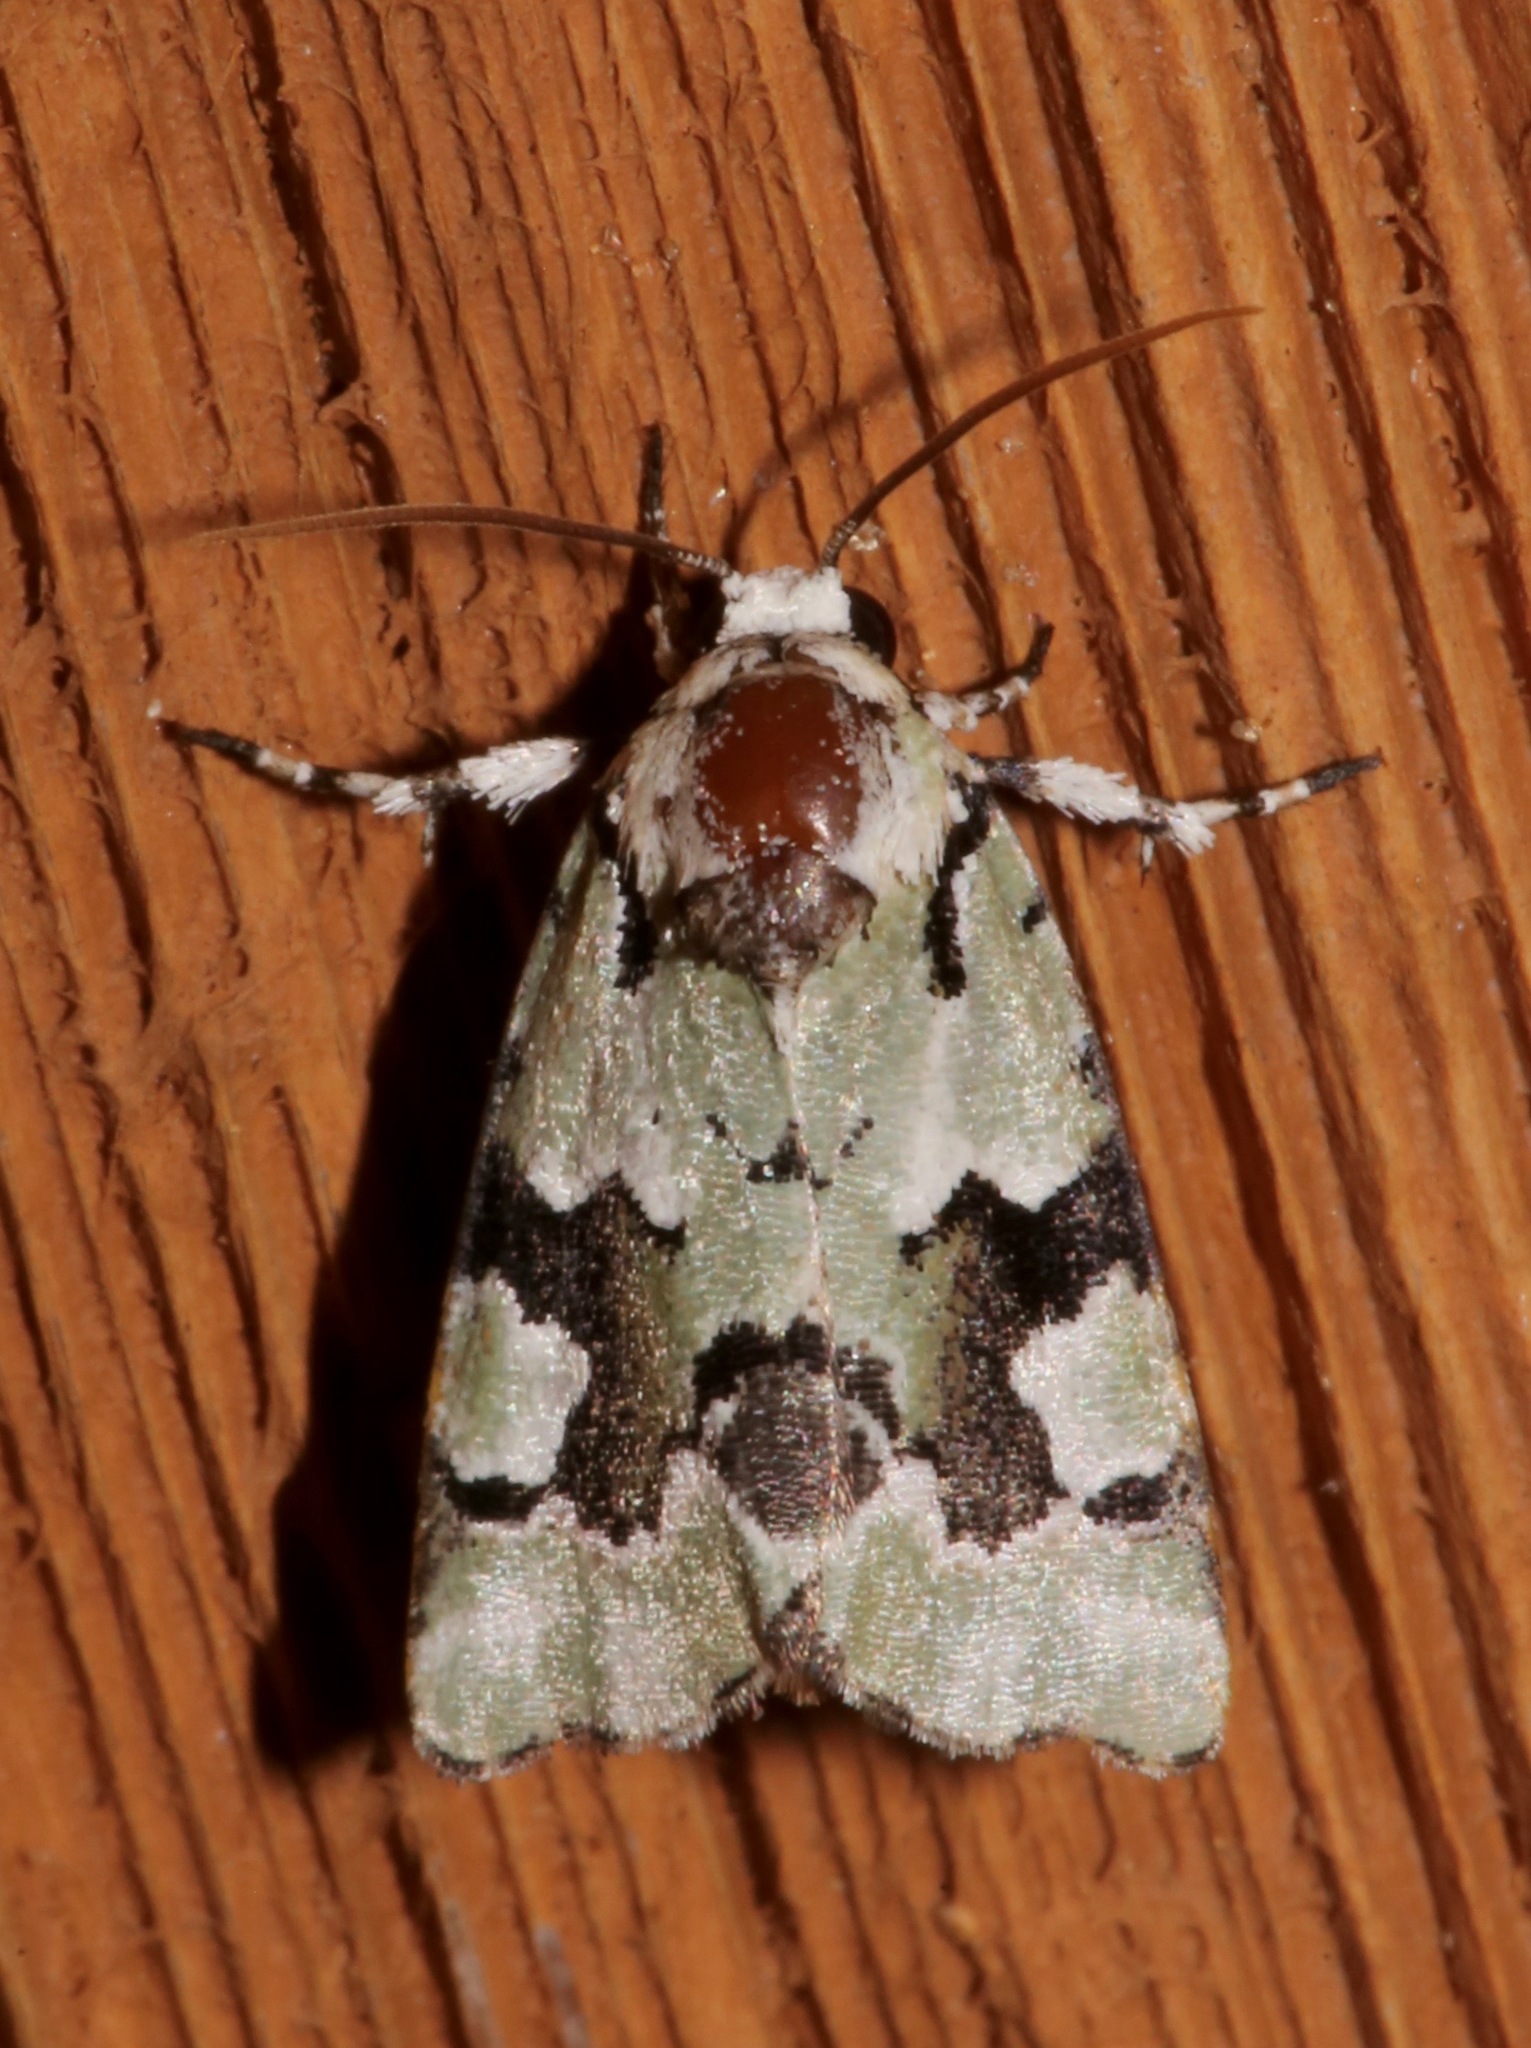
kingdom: Animalia
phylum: Arthropoda
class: Insecta
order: Lepidoptera
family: Noctuidae
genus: Emarginea
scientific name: Emarginea percara
